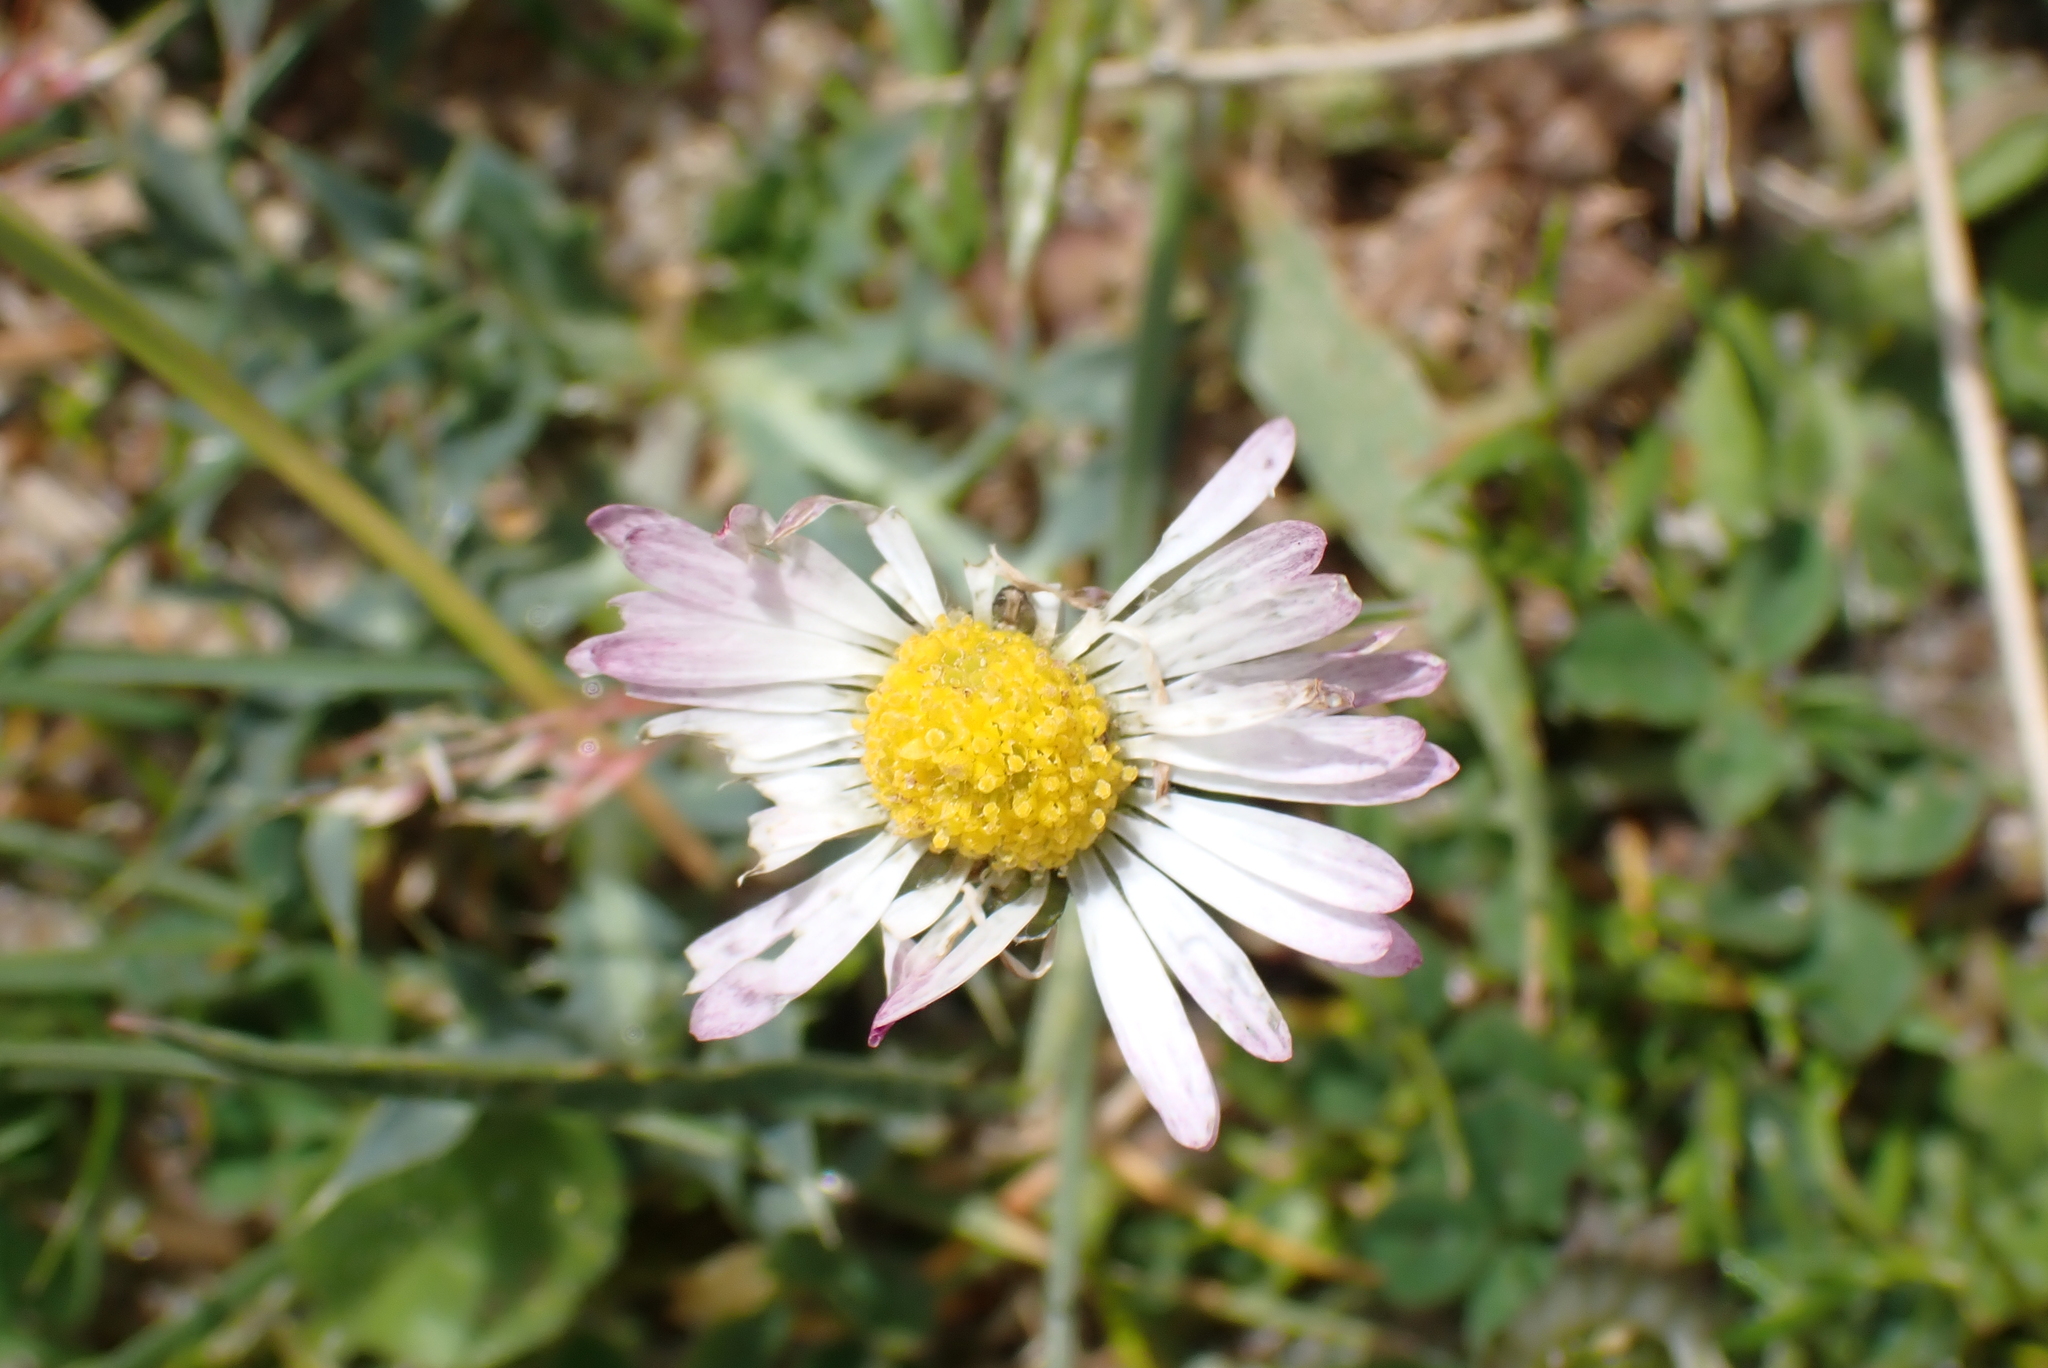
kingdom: Plantae
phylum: Tracheophyta
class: Magnoliopsida
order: Asterales
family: Asteraceae
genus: Bellis
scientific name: Bellis perennis
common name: Lawndaisy
